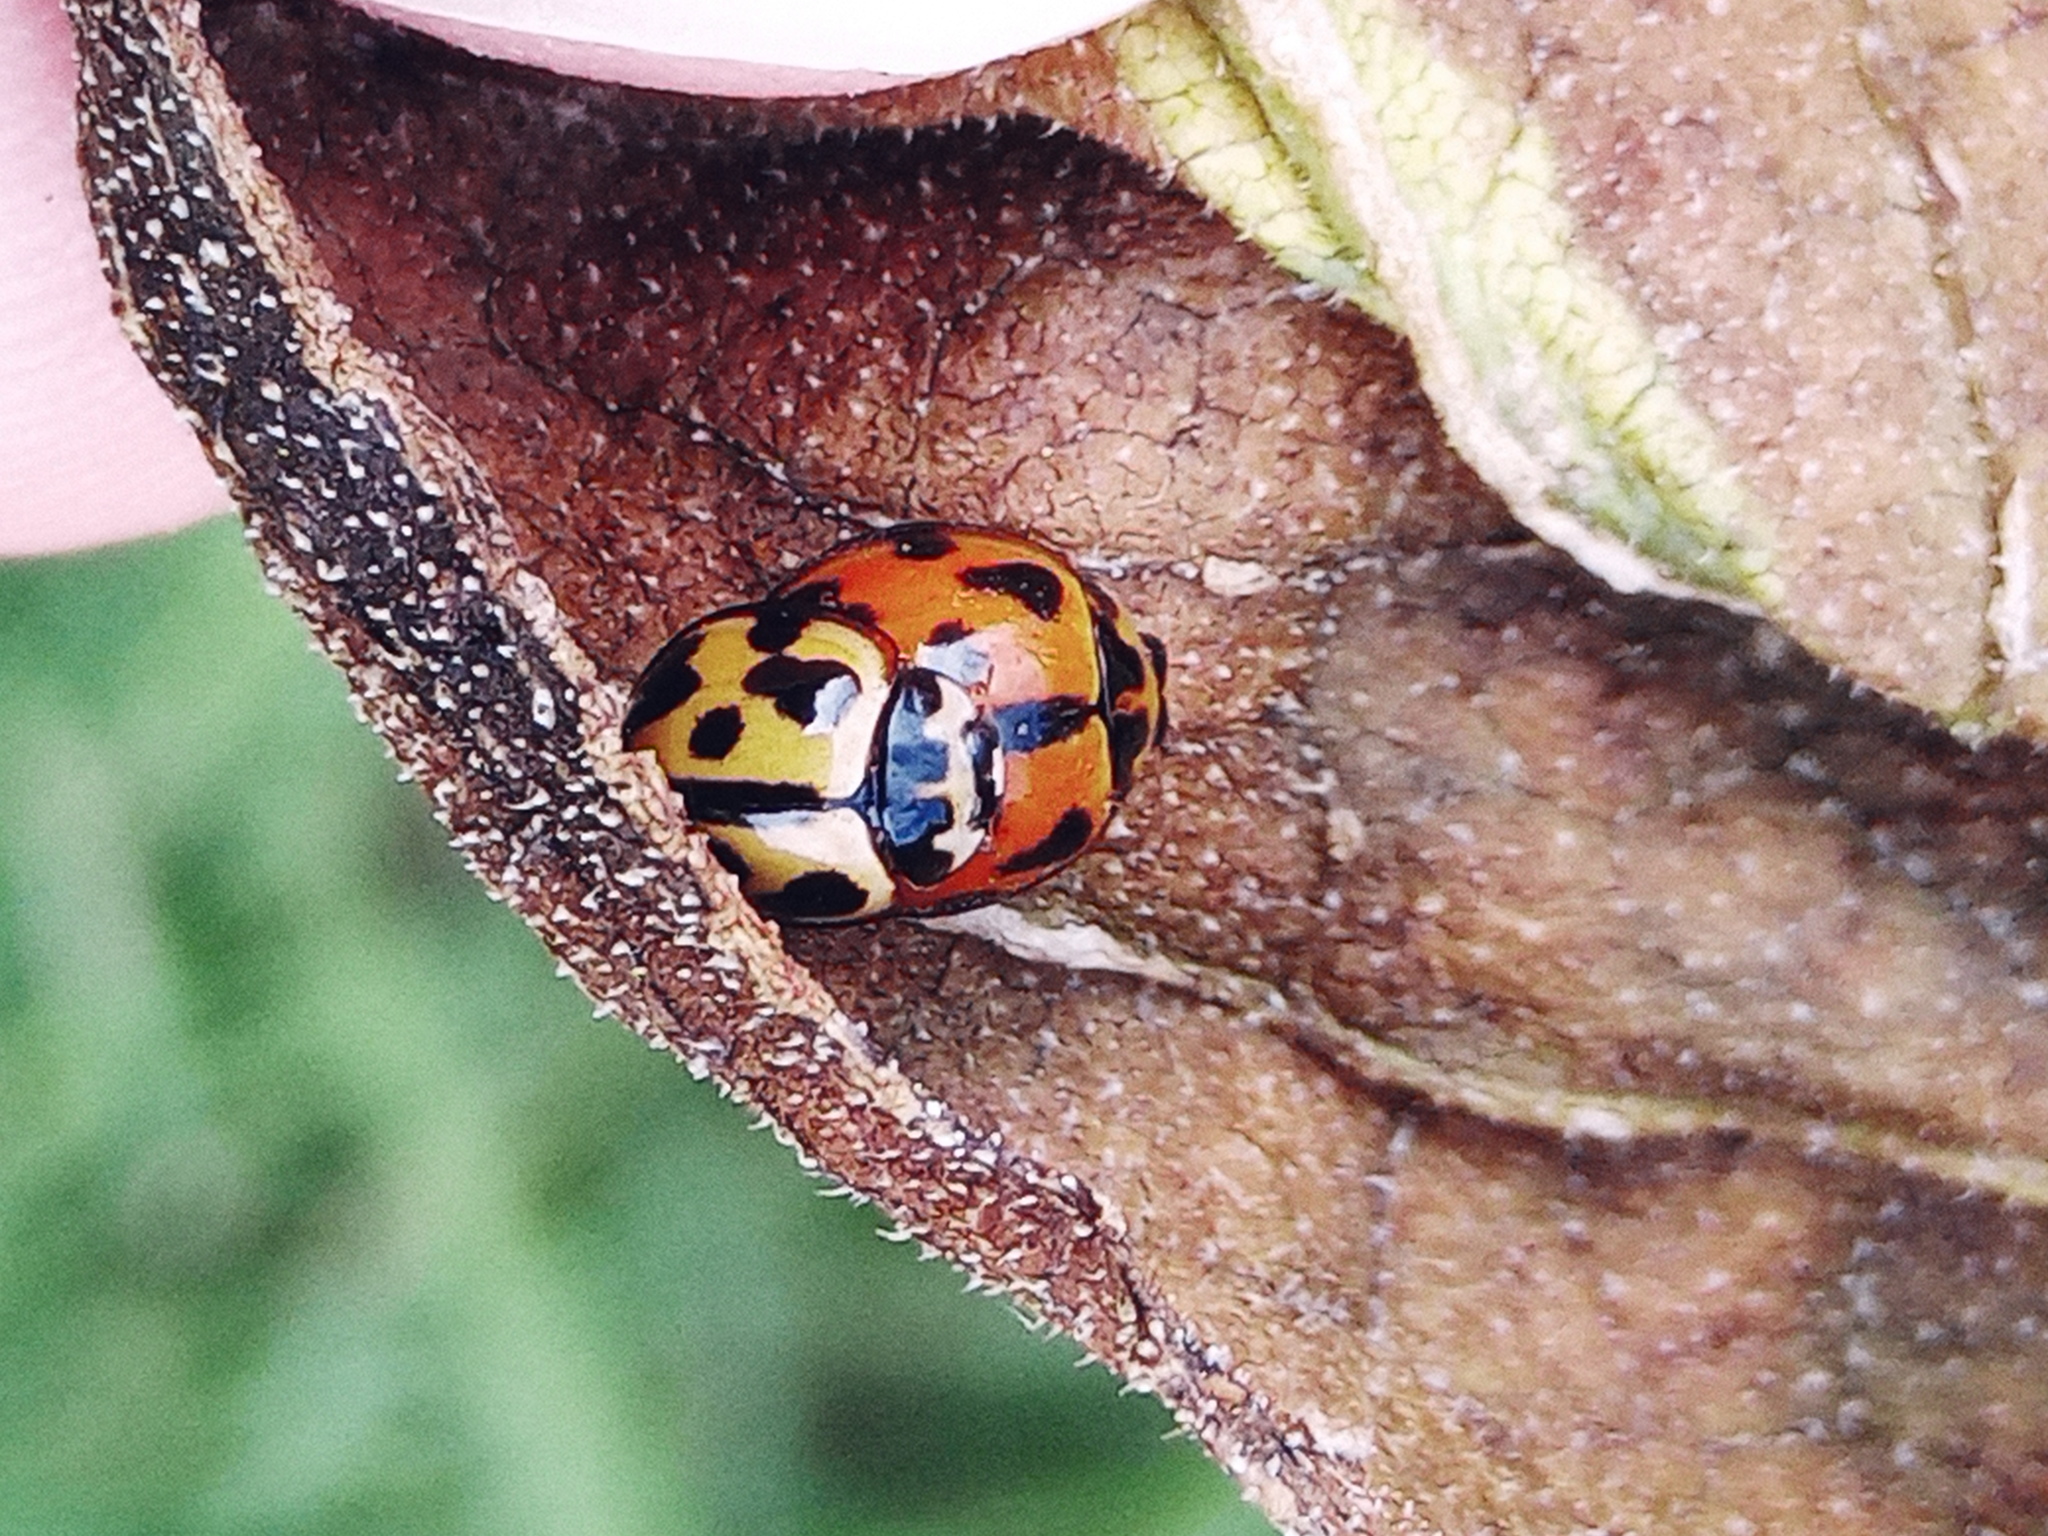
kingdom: Animalia
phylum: Arthropoda
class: Insecta
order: Coleoptera
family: Coccinellidae
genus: Coelophora
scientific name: Coelophora inaequalis
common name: Common australian lady beetle
